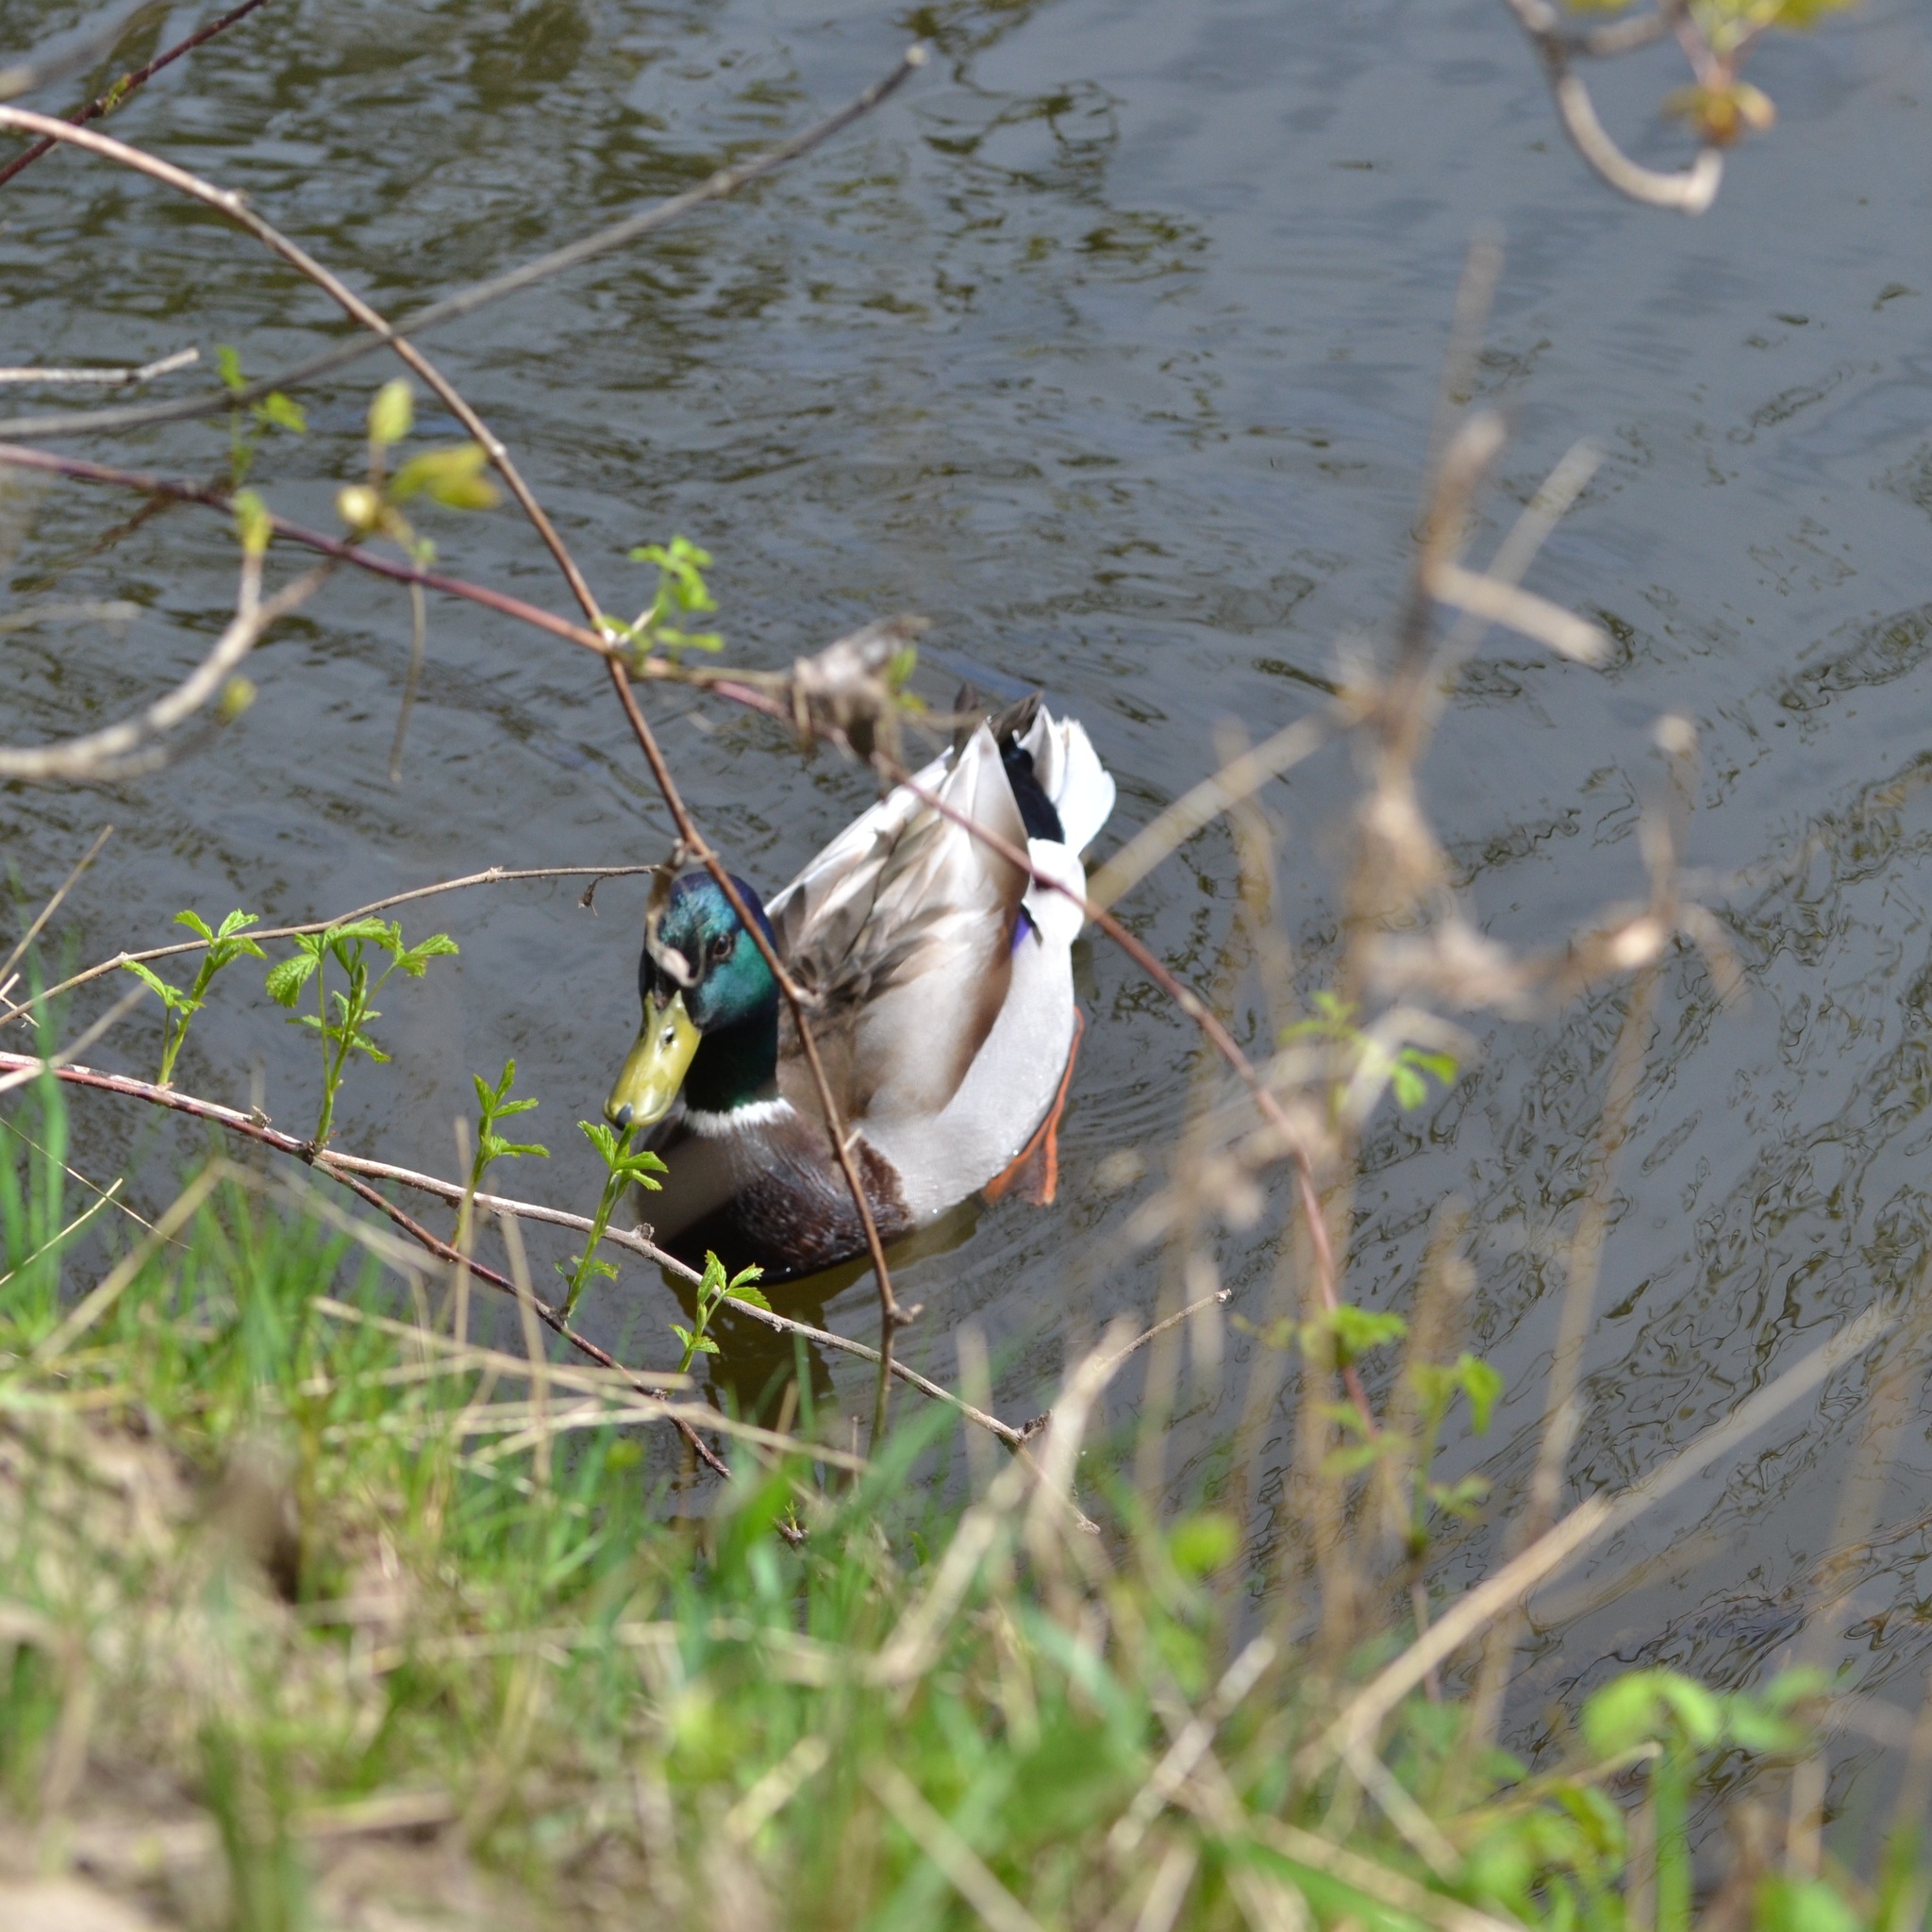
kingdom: Animalia
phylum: Chordata
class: Aves
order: Anseriformes
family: Anatidae
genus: Anas
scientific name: Anas platyrhynchos
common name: Mallard
